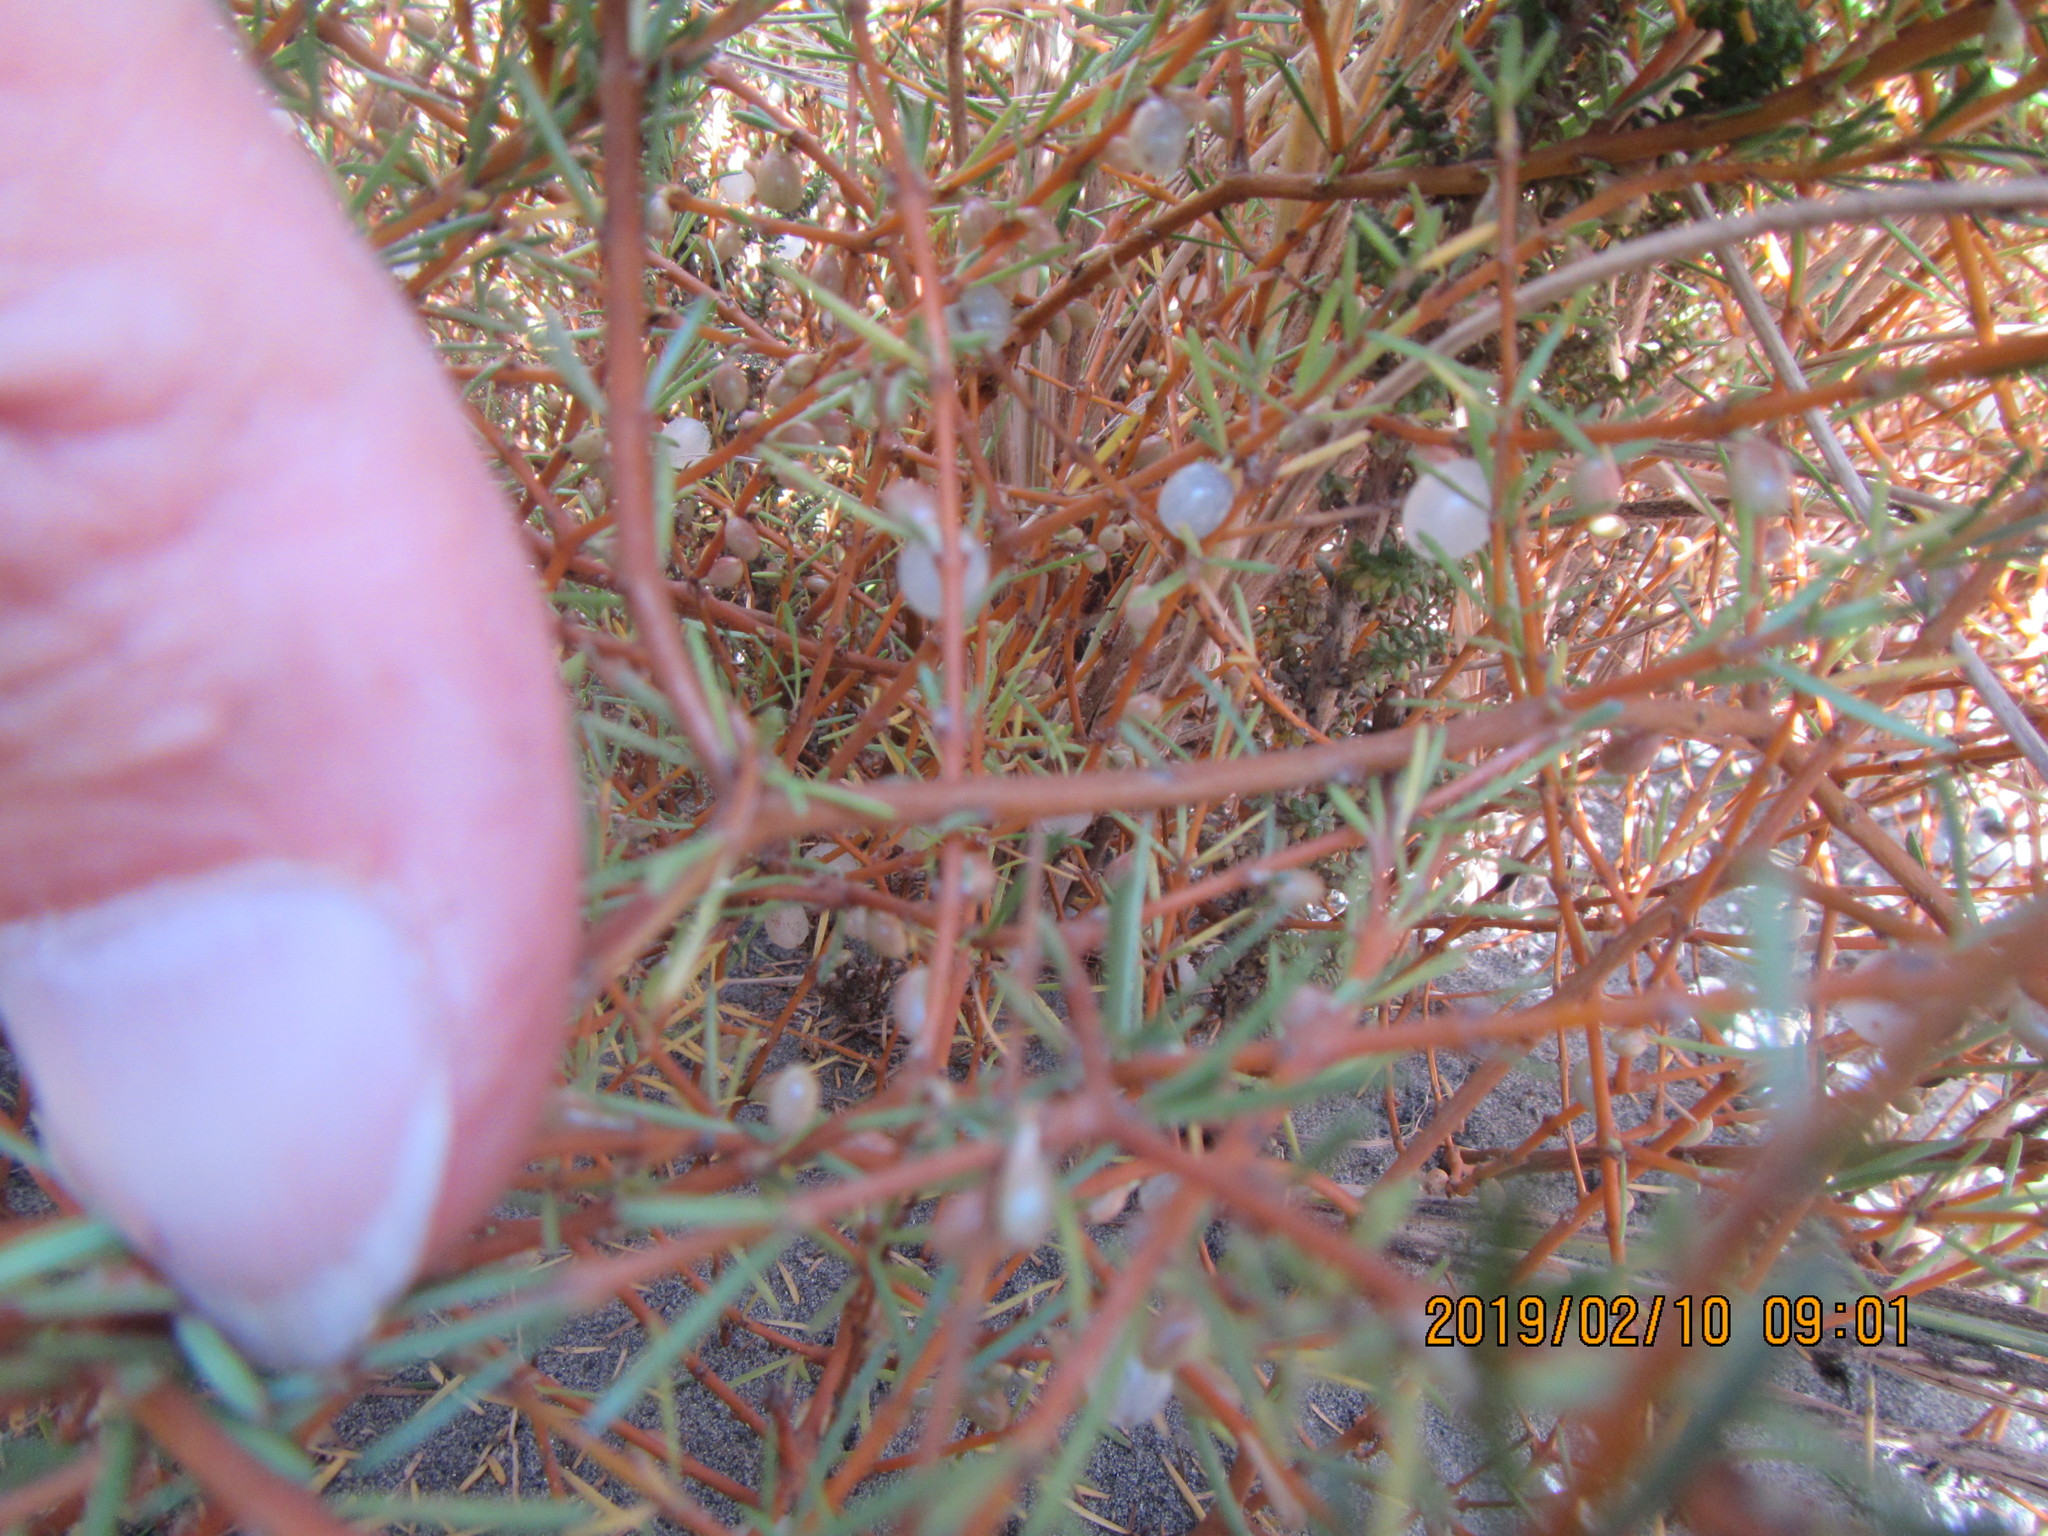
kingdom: Plantae
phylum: Tracheophyta
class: Magnoliopsida
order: Gentianales
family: Rubiaceae
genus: Coprosma
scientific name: Coprosma acerosa
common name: Sand coprosma
